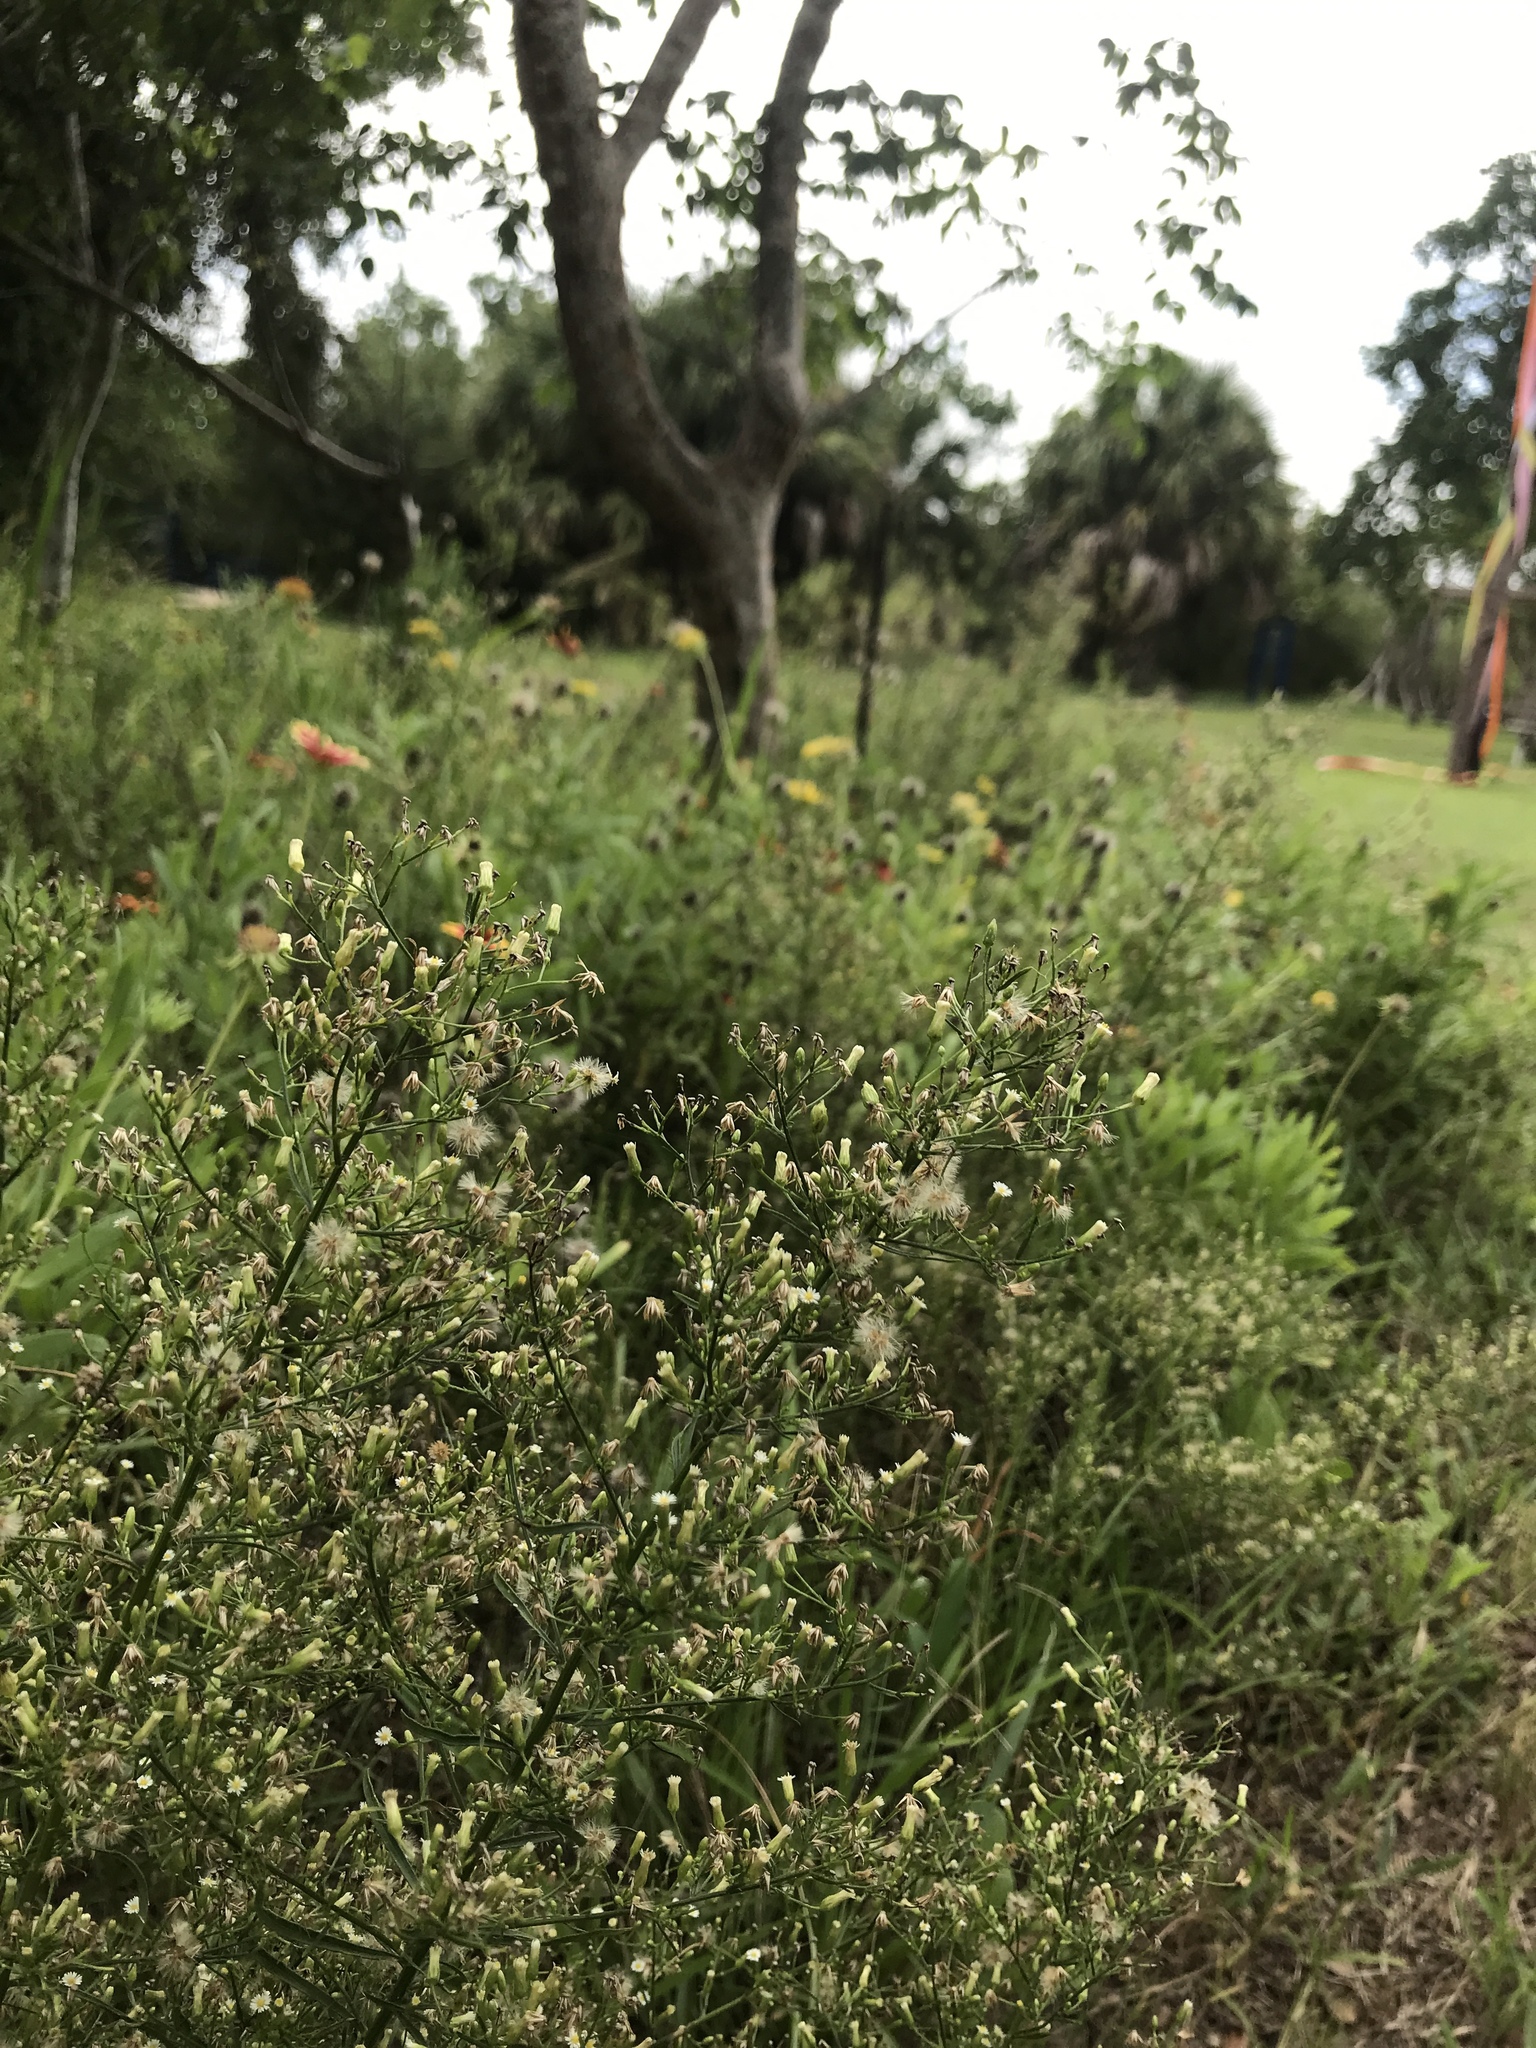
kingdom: Plantae
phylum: Tracheophyta
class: Magnoliopsida
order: Asterales
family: Asteraceae
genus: Erigeron
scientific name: Erigeron canadensis
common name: Canadian fleabane
